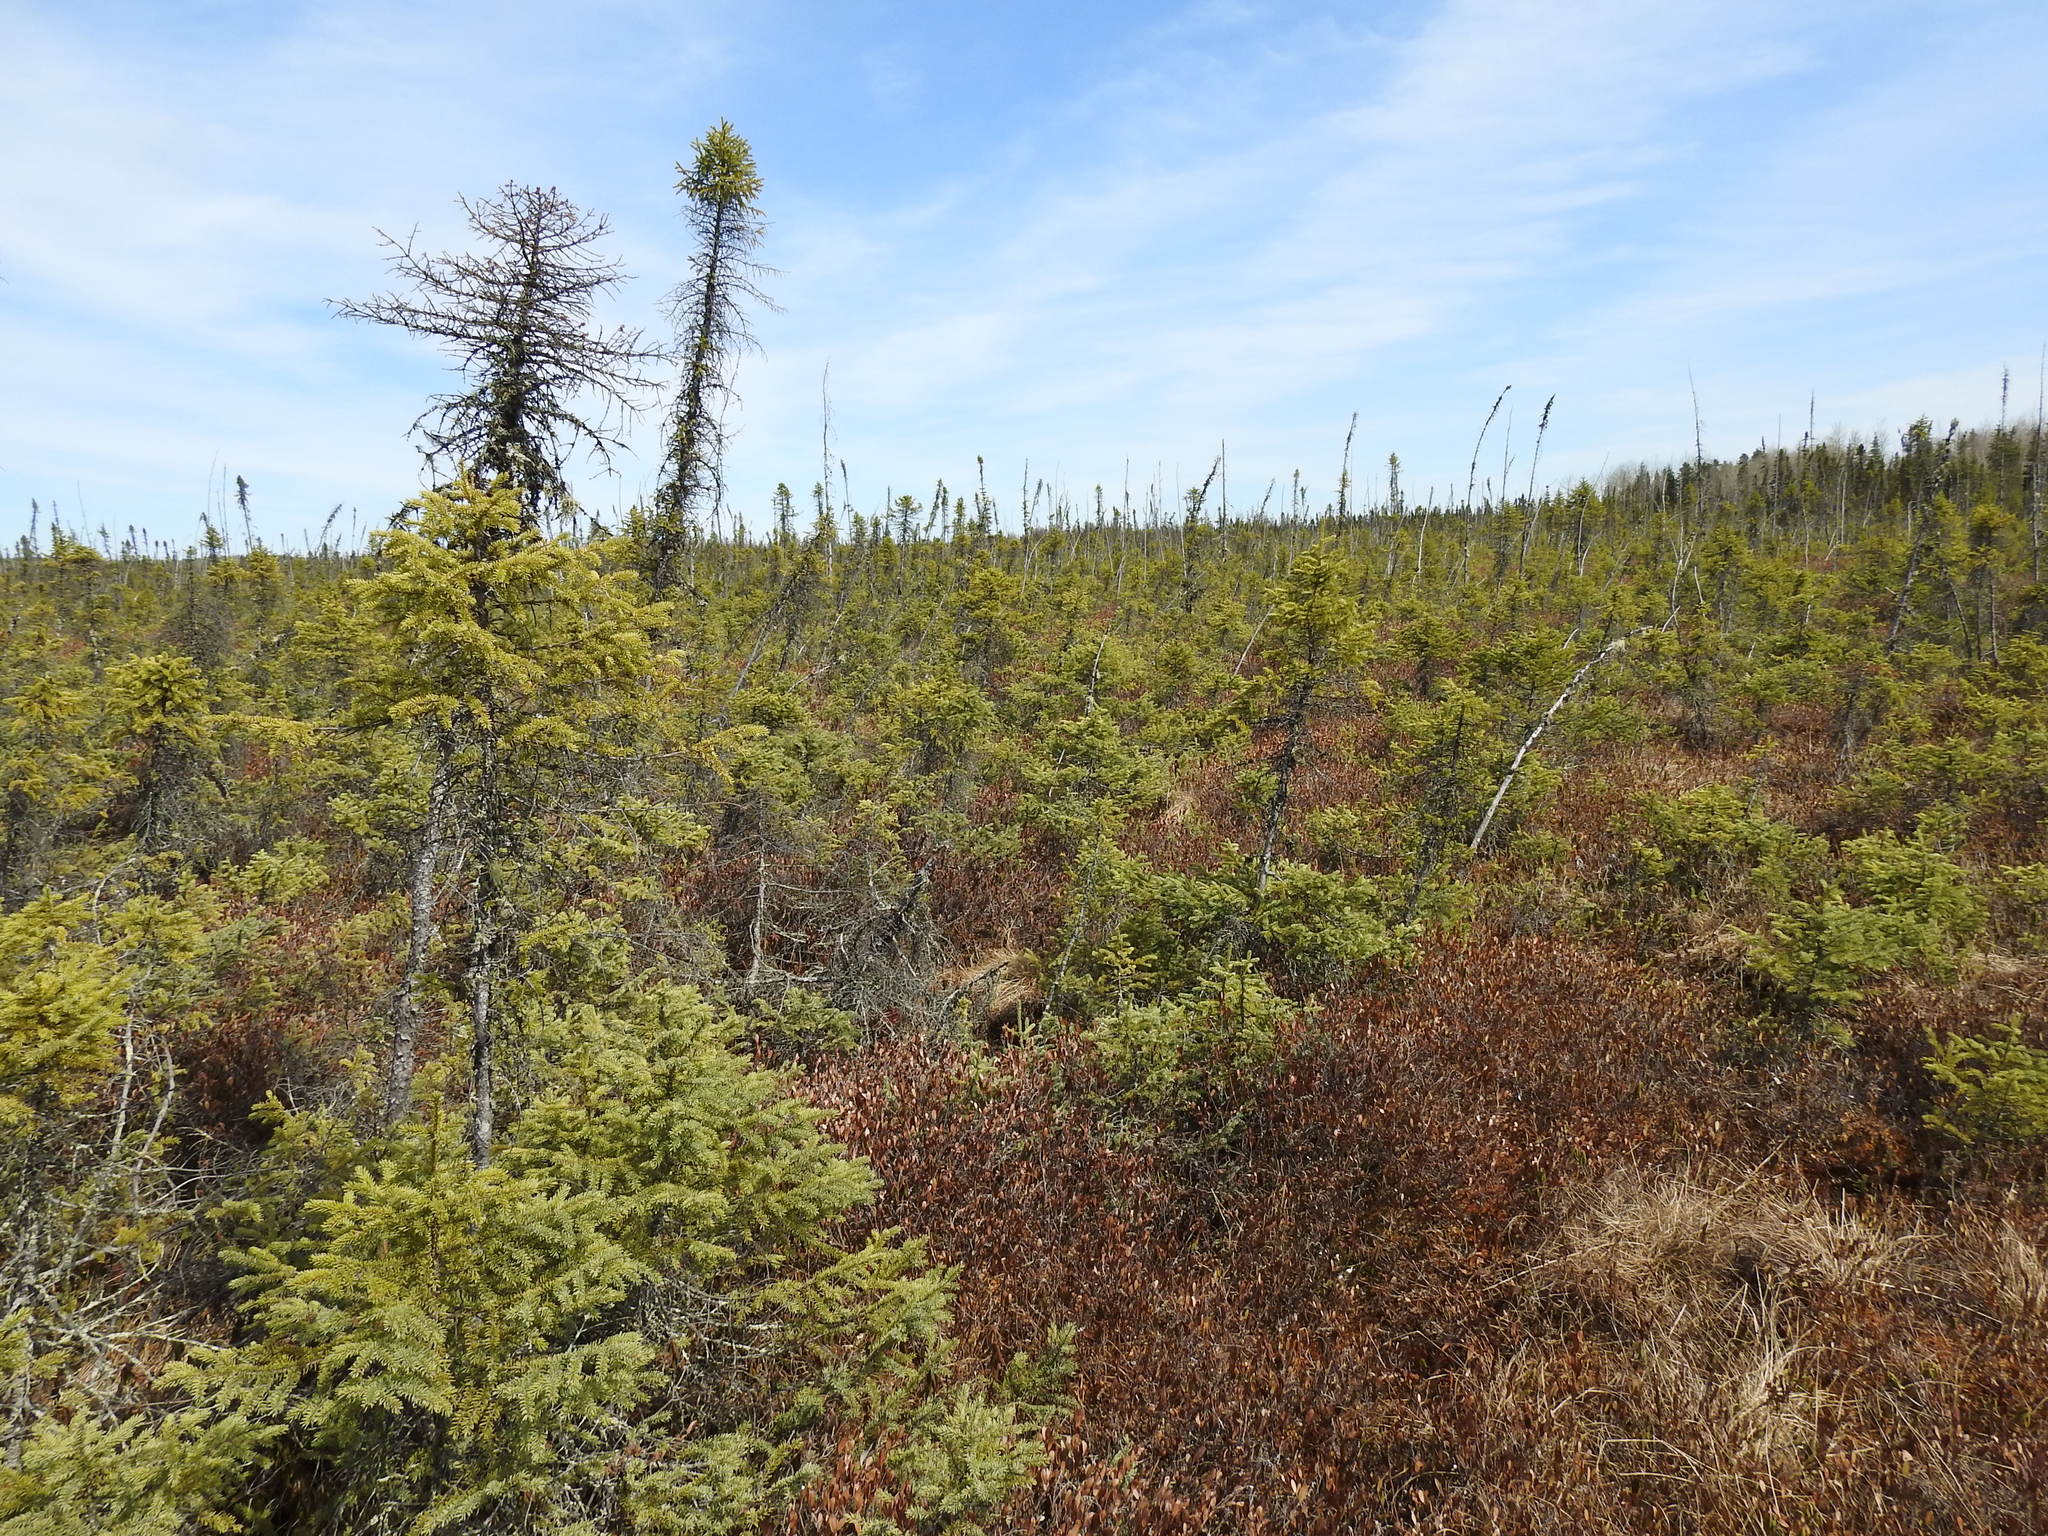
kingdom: Plantae
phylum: Tracheophyta
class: Pinopsida
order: Pinales
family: Pinaceae
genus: Picea
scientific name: Picea mariana
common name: Black spruce
